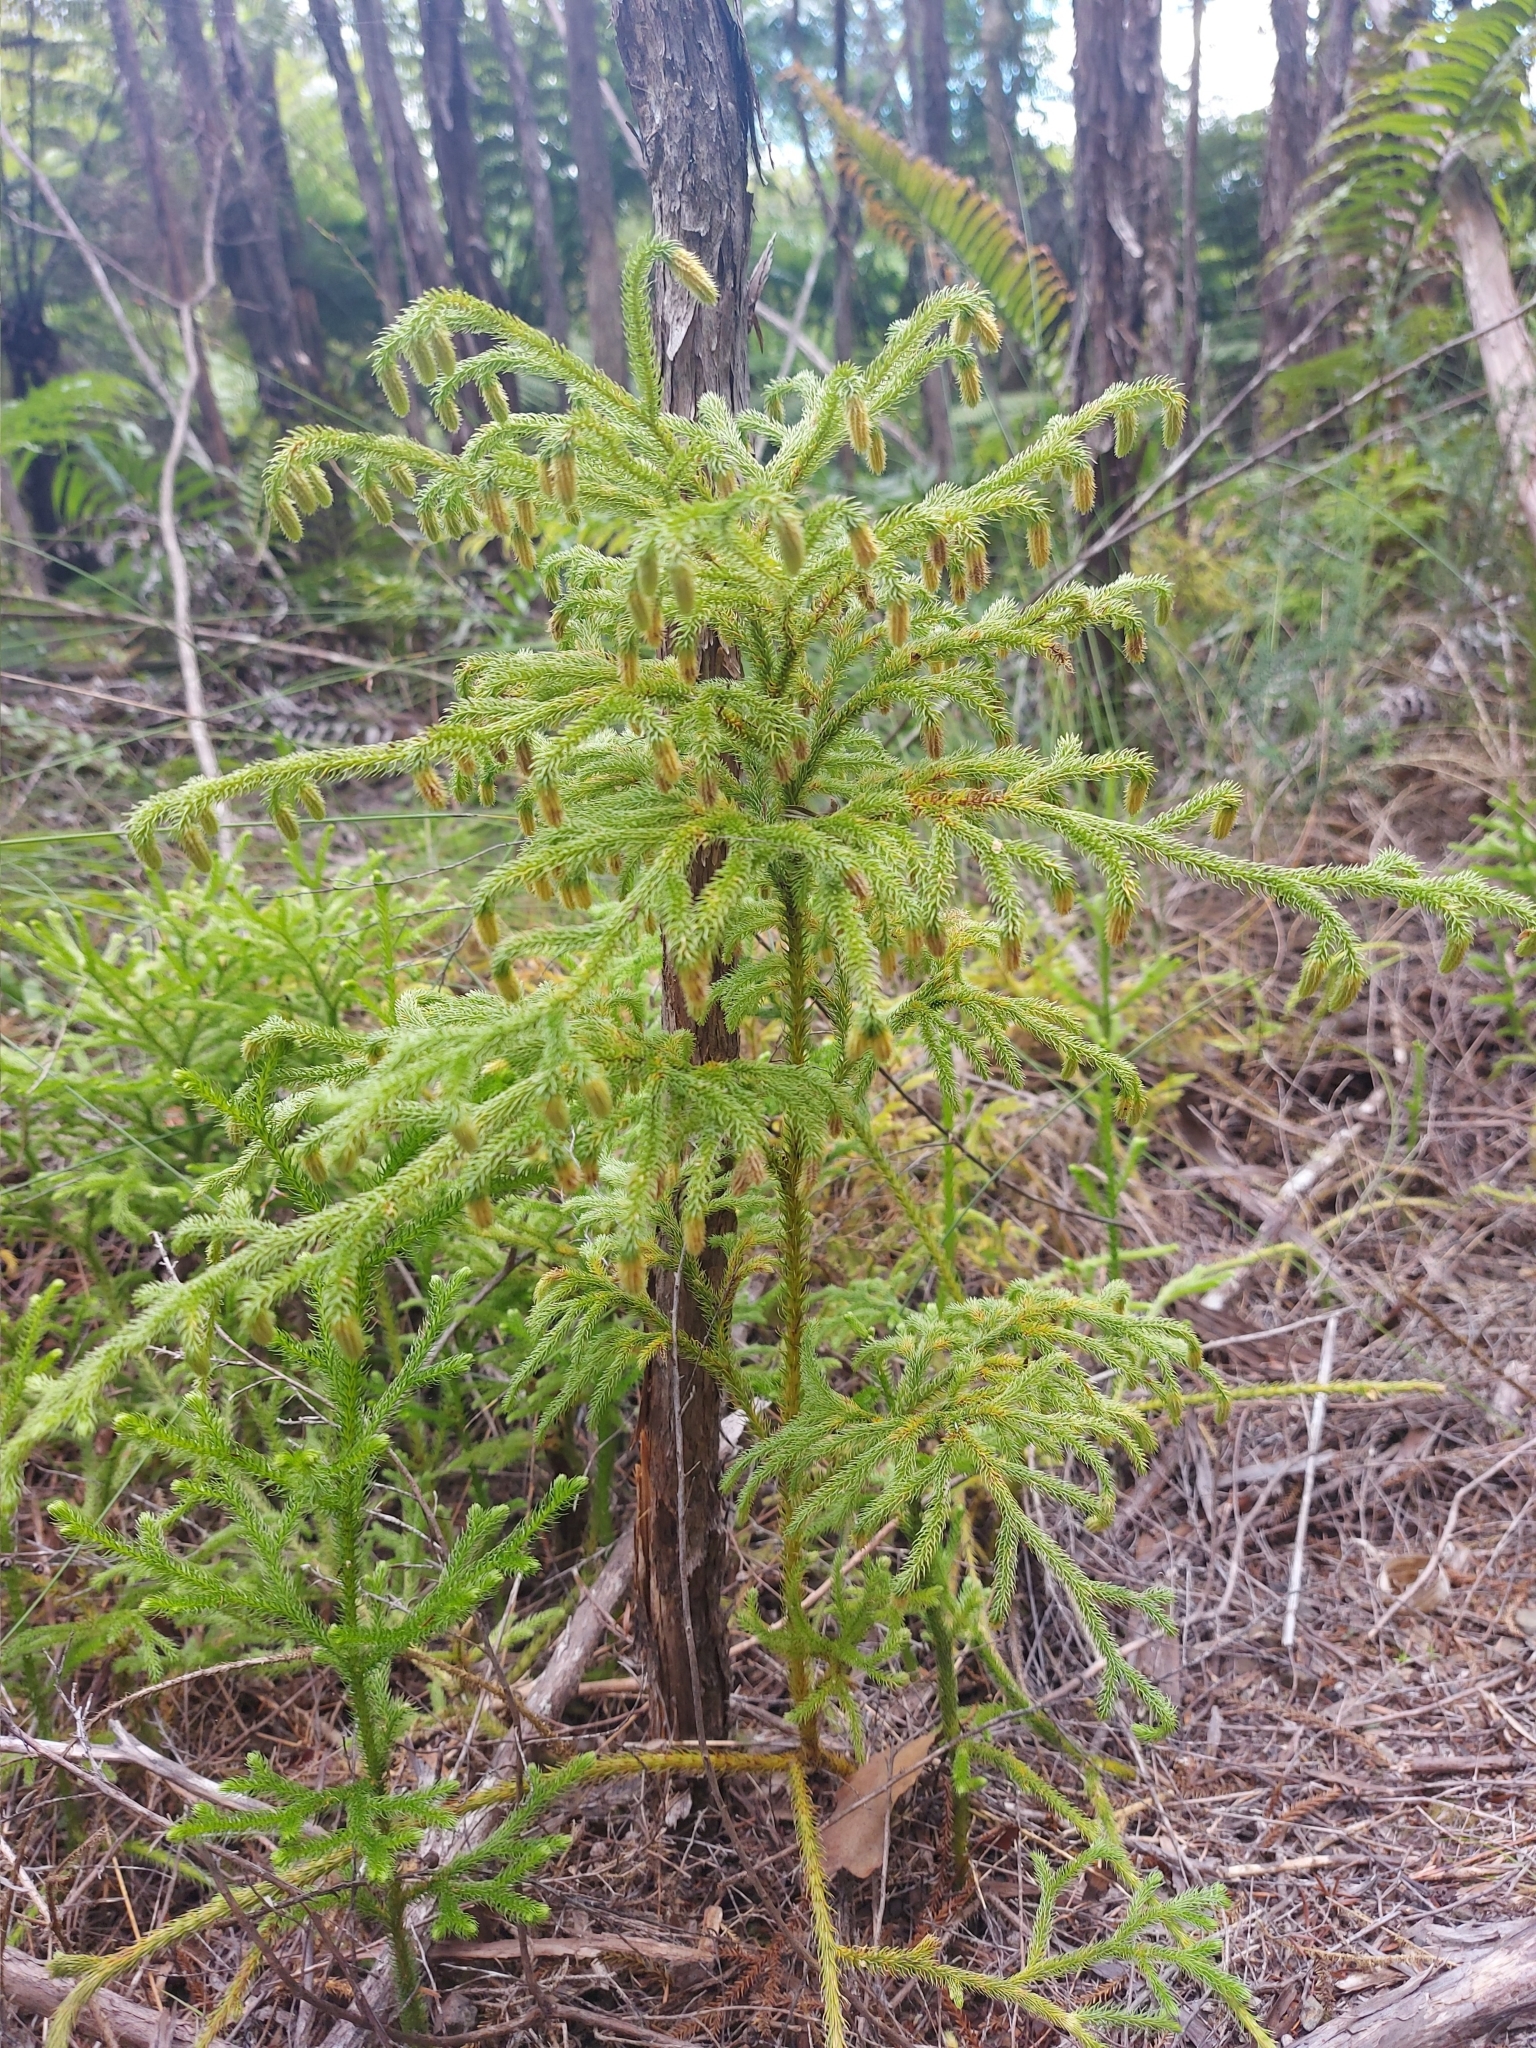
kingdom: Plantae
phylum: Tracheophyta
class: Lycopodiopsida
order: Lycopodiales
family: Lycopodiaceae
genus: Palhinhaea
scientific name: Palhinhaea cernua
